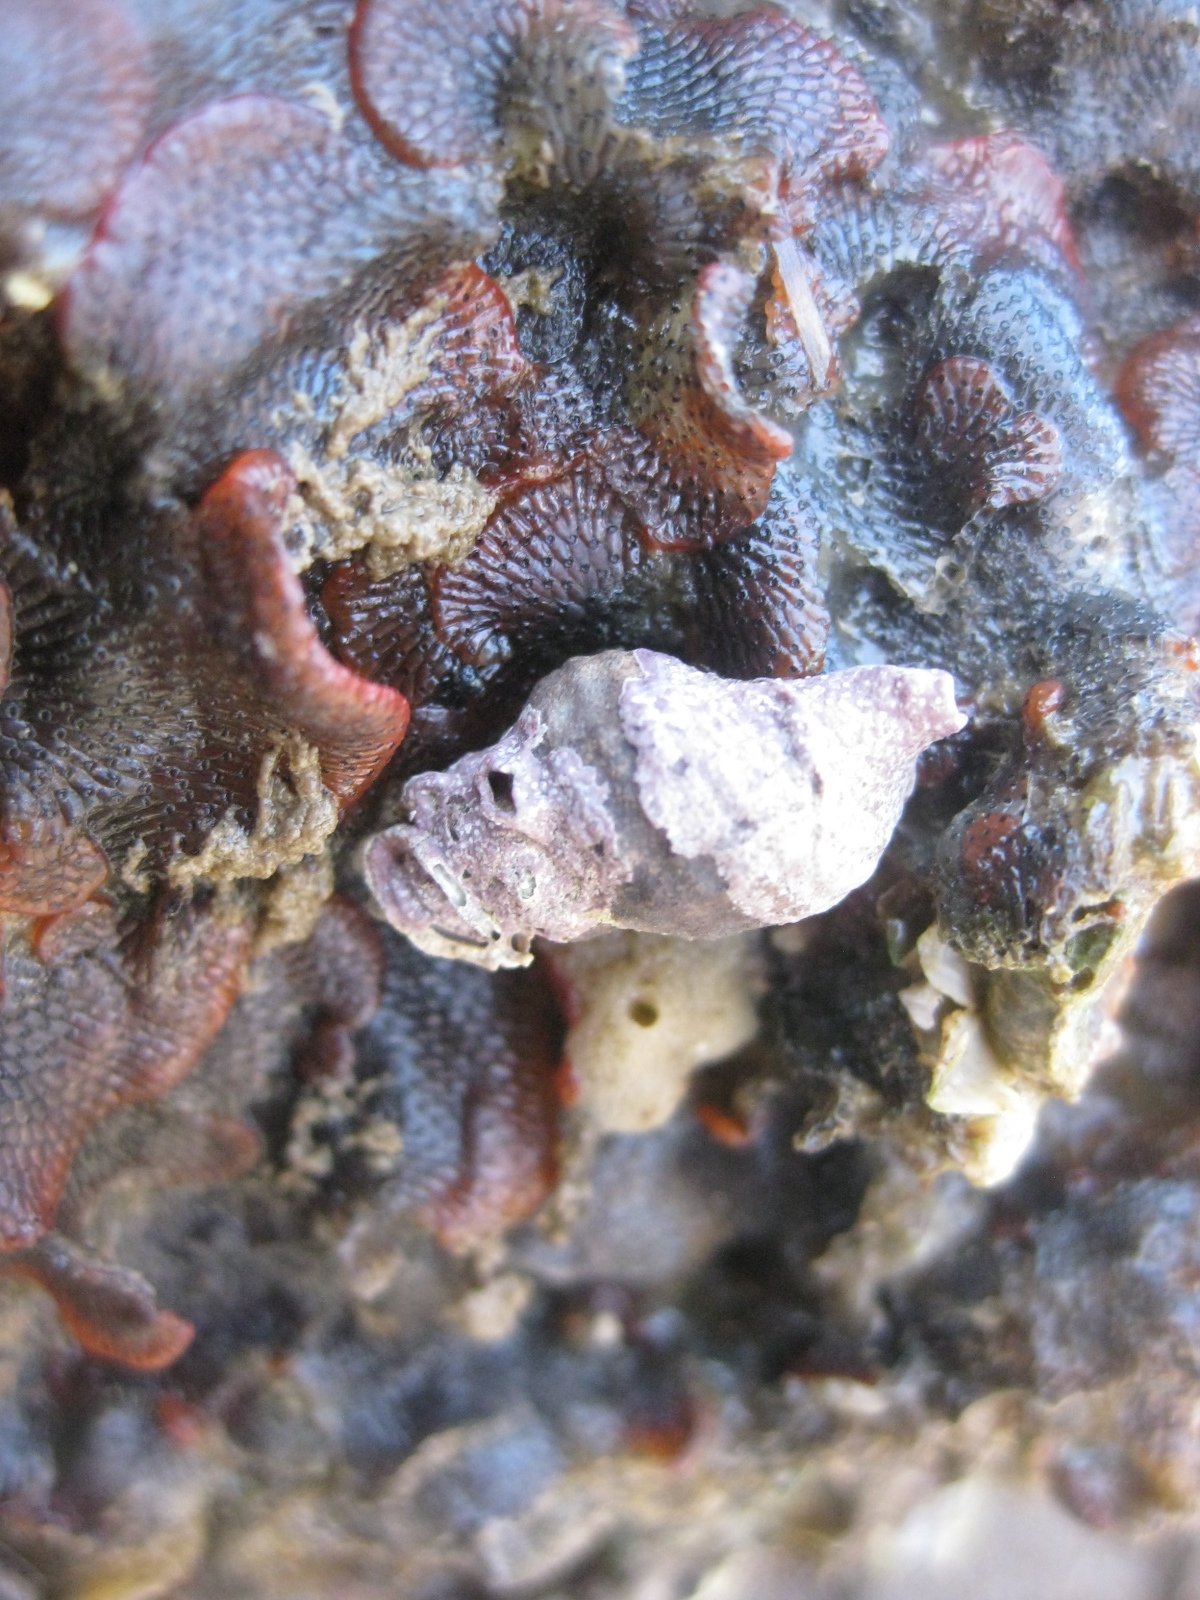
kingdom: Animalia
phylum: Bryozoa
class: Gymnolaemata
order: Cheilostomatida
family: Watersiporidae
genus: Watersipora
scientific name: Watersipora subatra
